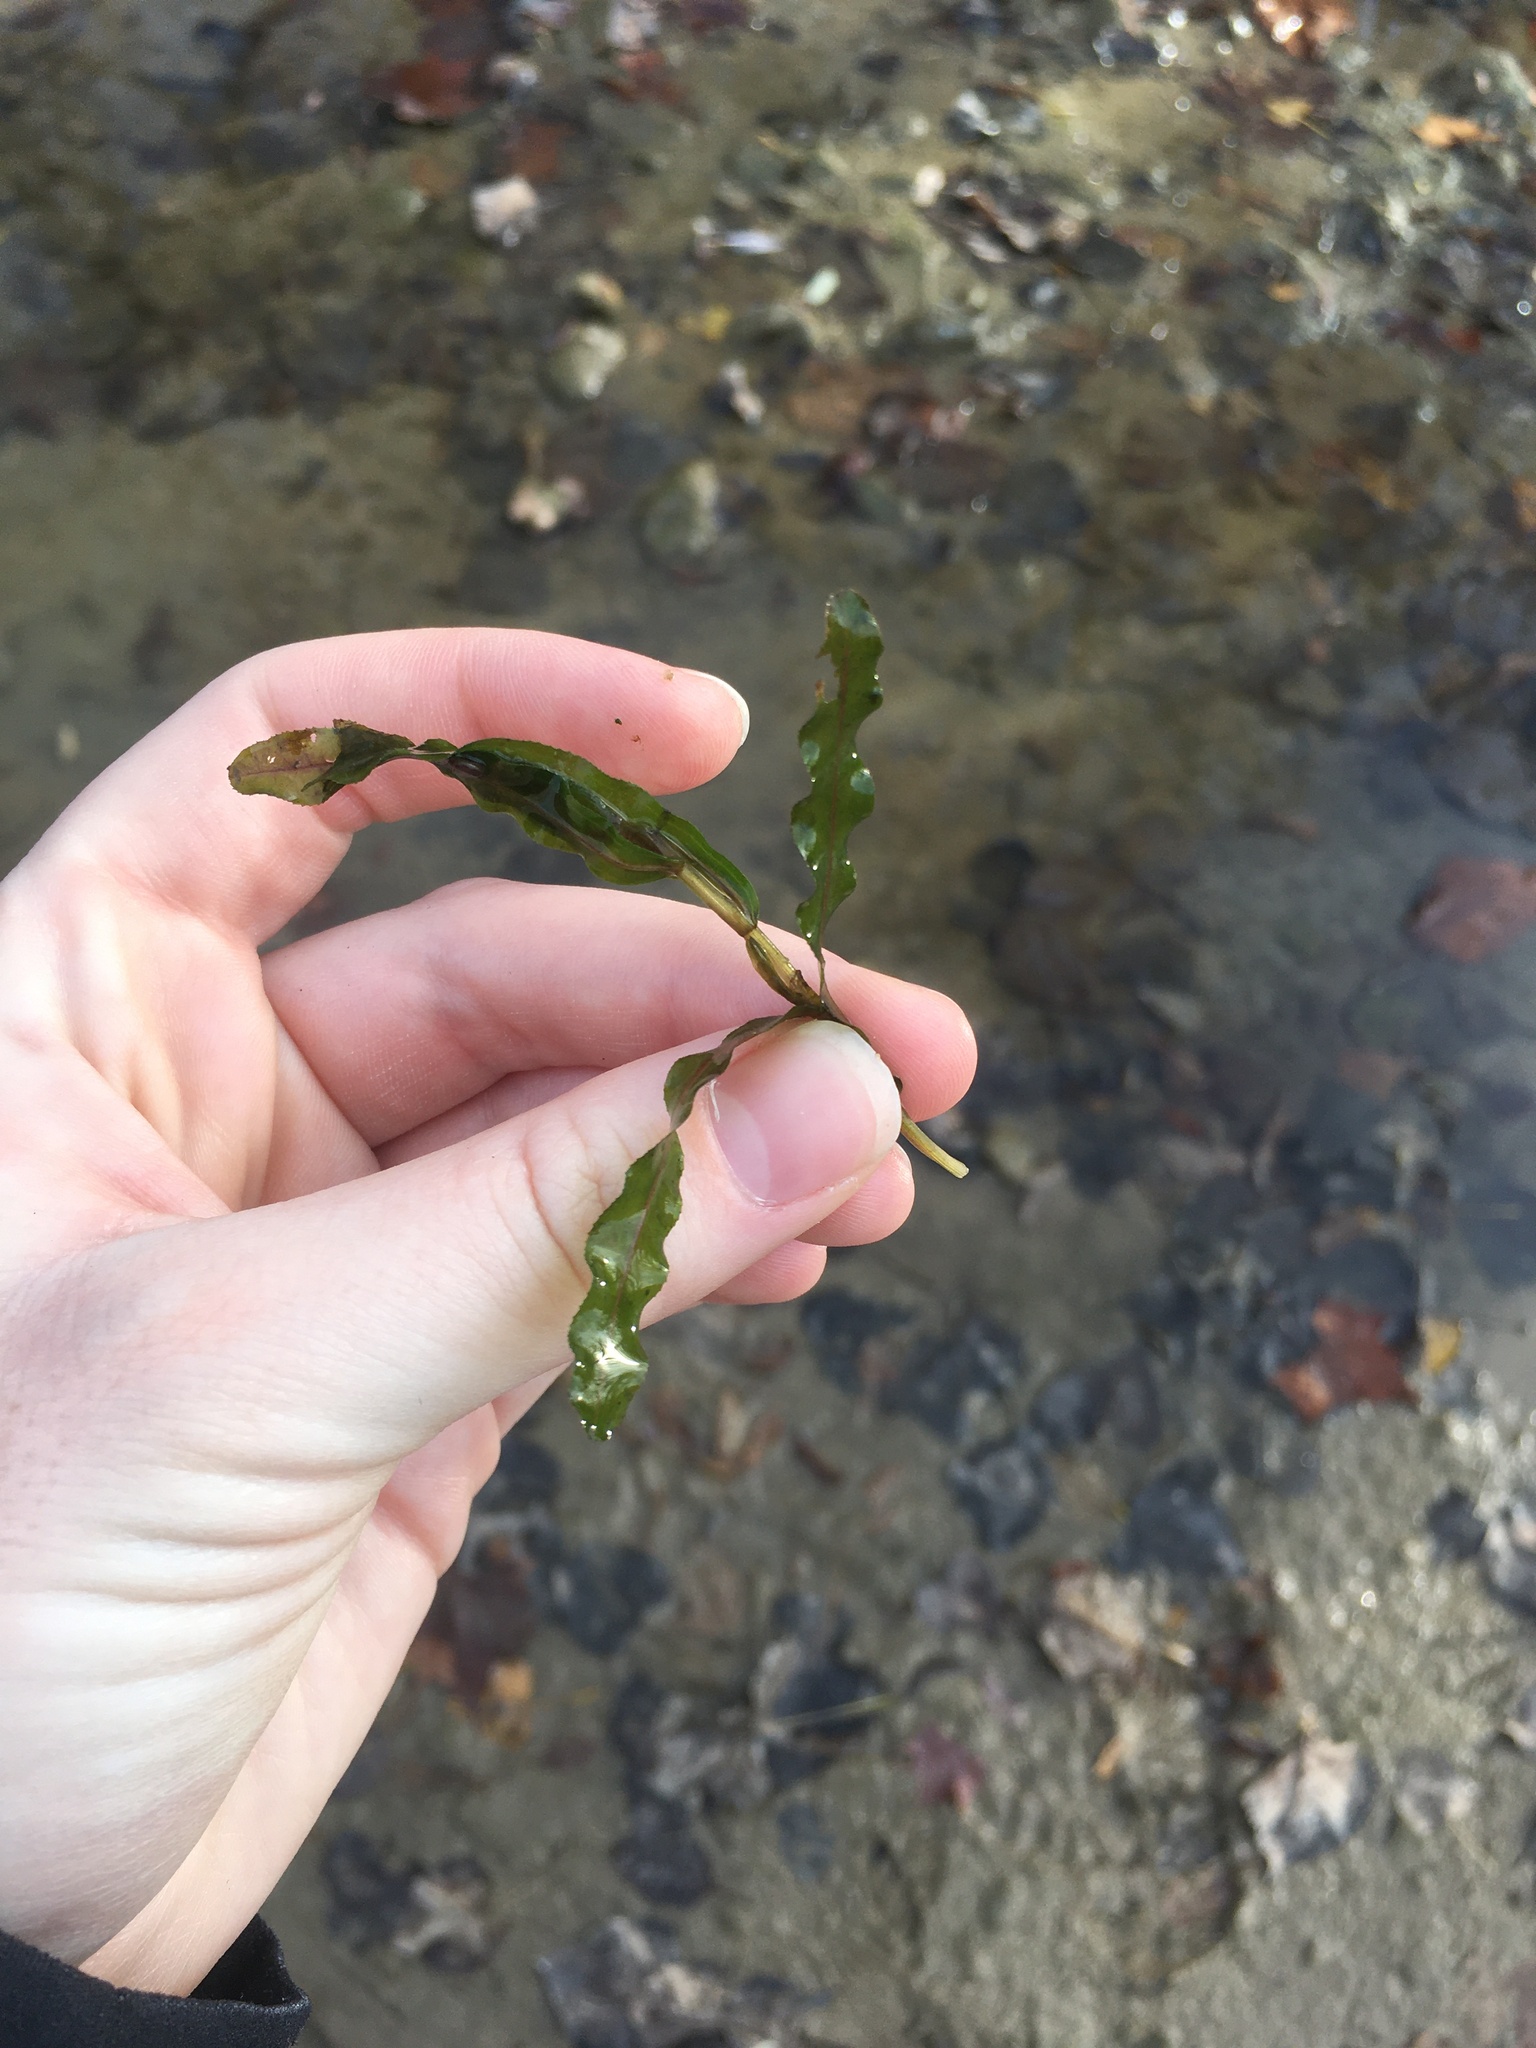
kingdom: Plantae
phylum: Tracheophyta
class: Liliopsida
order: Alismatales
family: Potamogetonaceae
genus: Potamogeton
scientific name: Potamogeton crispus
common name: Curled pondweed
